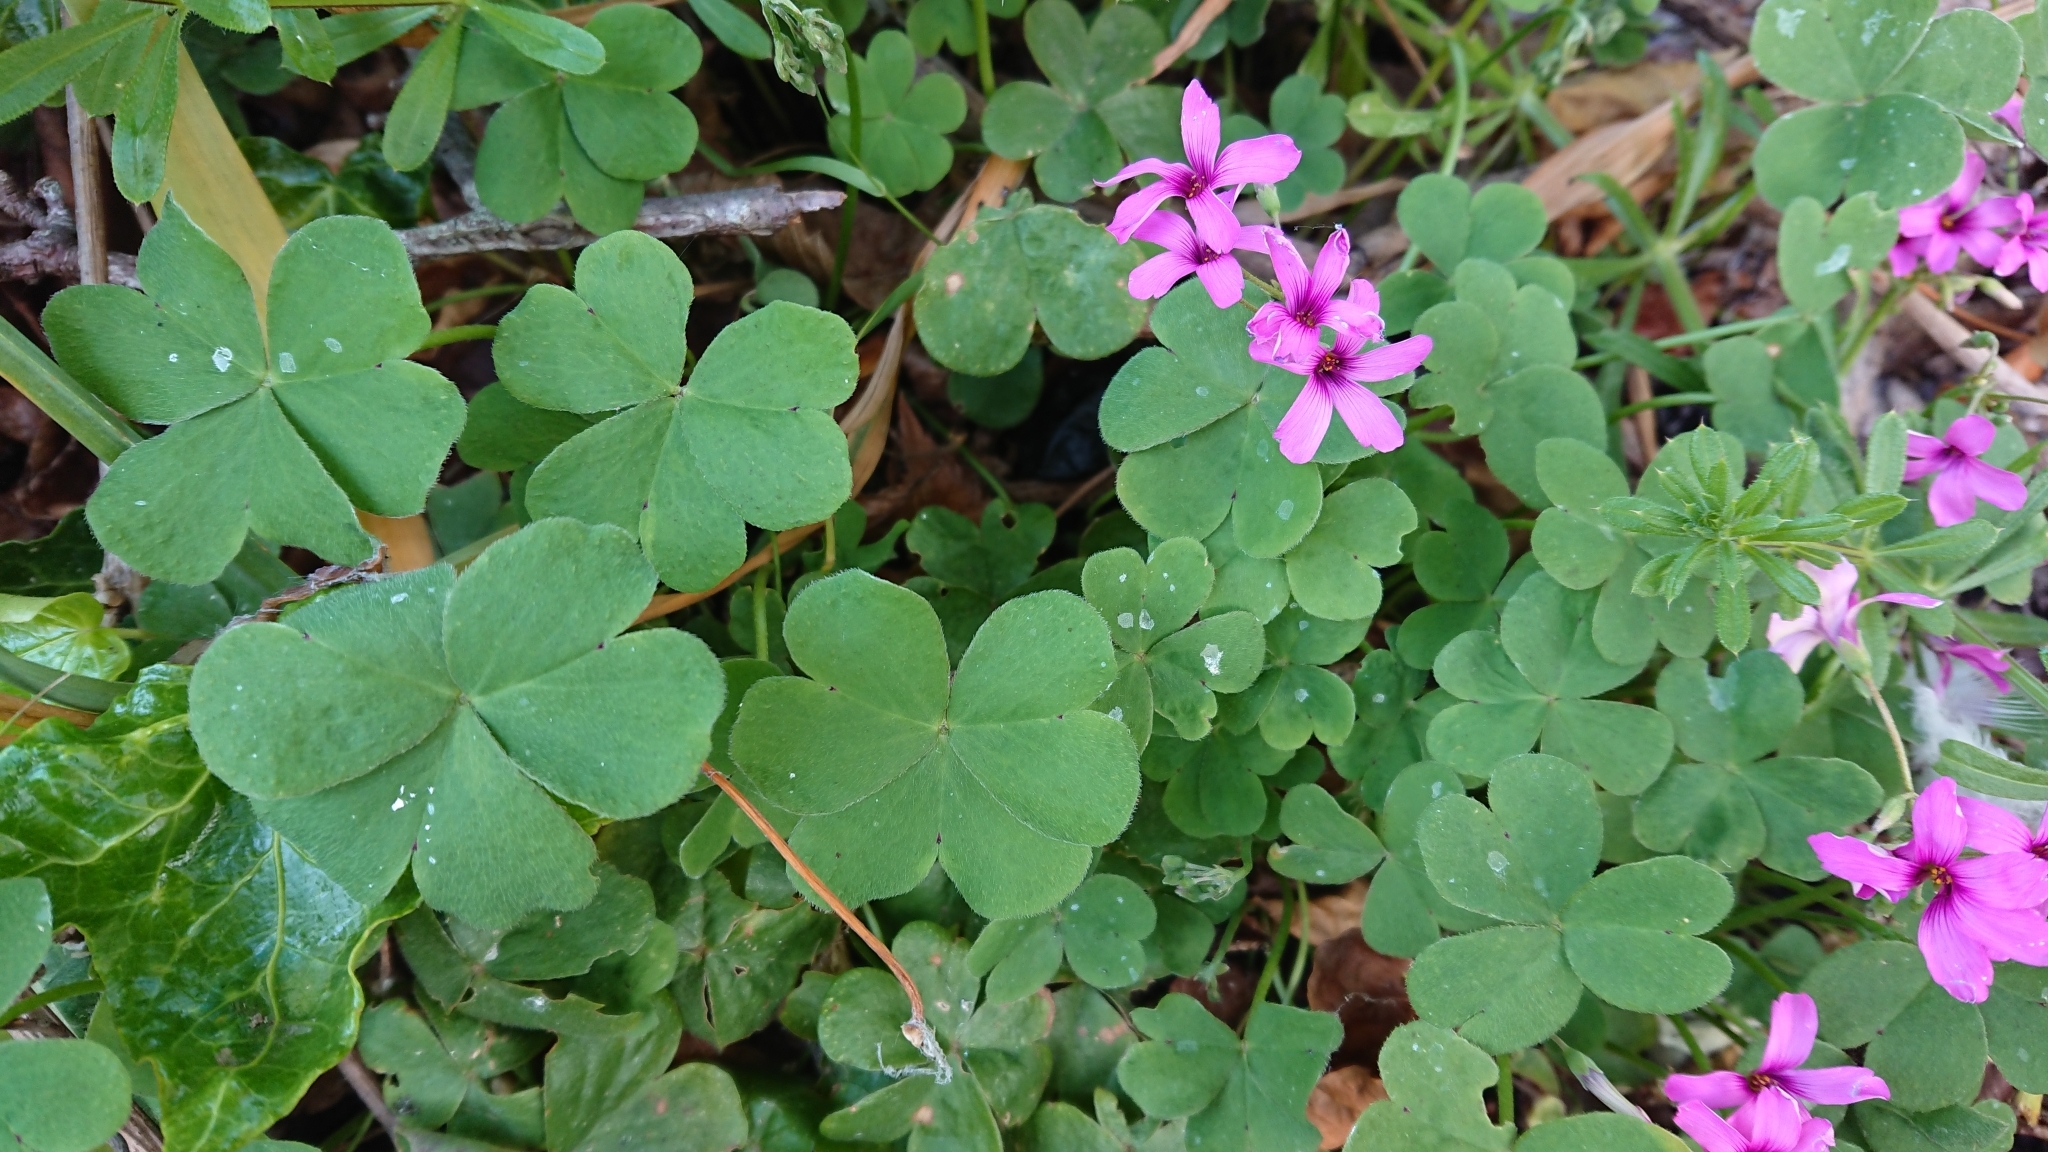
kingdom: Plantae
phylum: Tracheophyta
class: Magnoliopsida
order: Oxalidales
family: Oxalidaceae
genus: Oxalis
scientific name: Oxalis articulata
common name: Pink-sorrel
